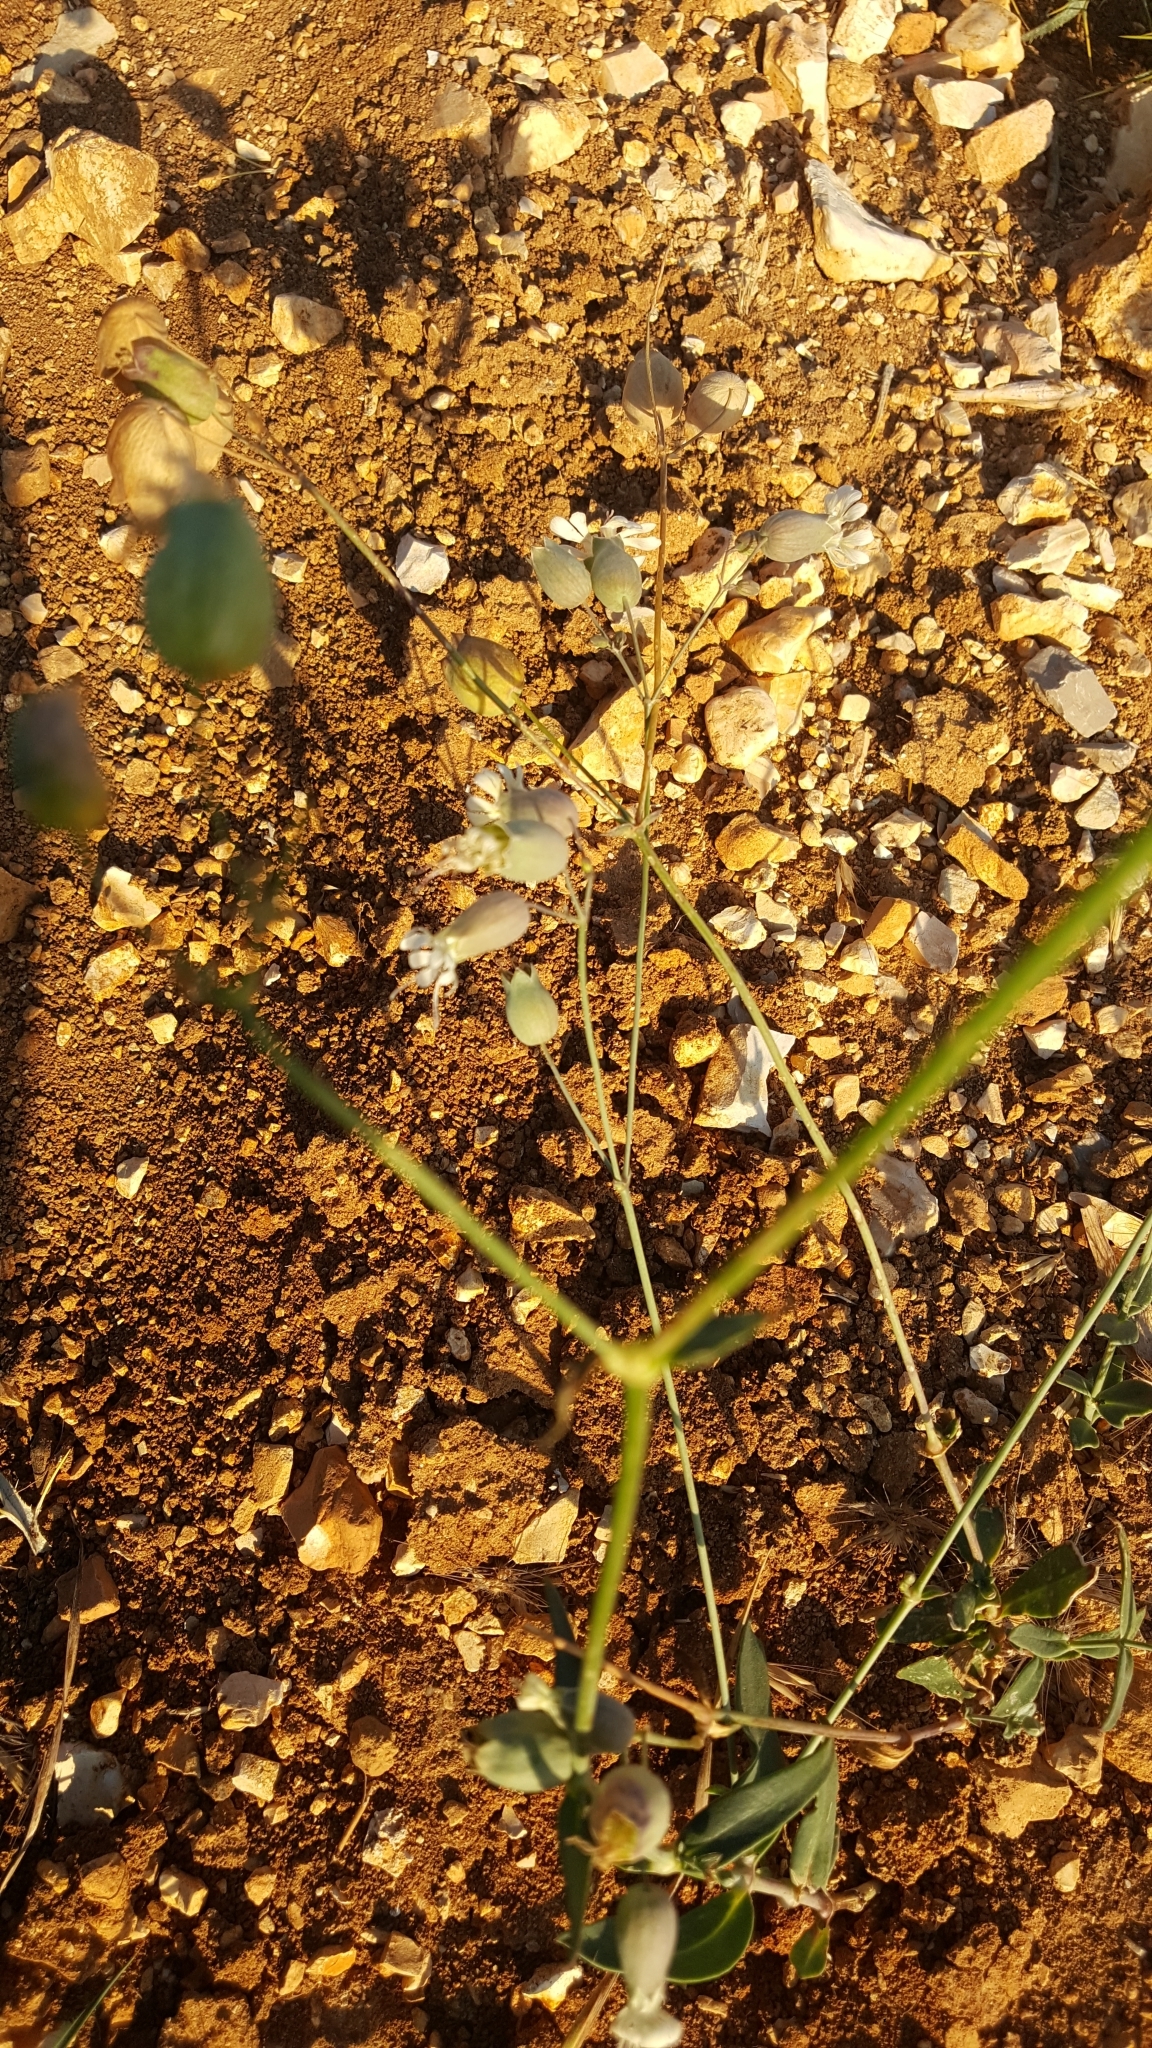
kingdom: Plantae
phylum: Tracheophyta
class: Magnoliopsida
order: Caryophyllales
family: Caryophyllaceae
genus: Silene
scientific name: Silene vulgaris
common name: Bladder campion
